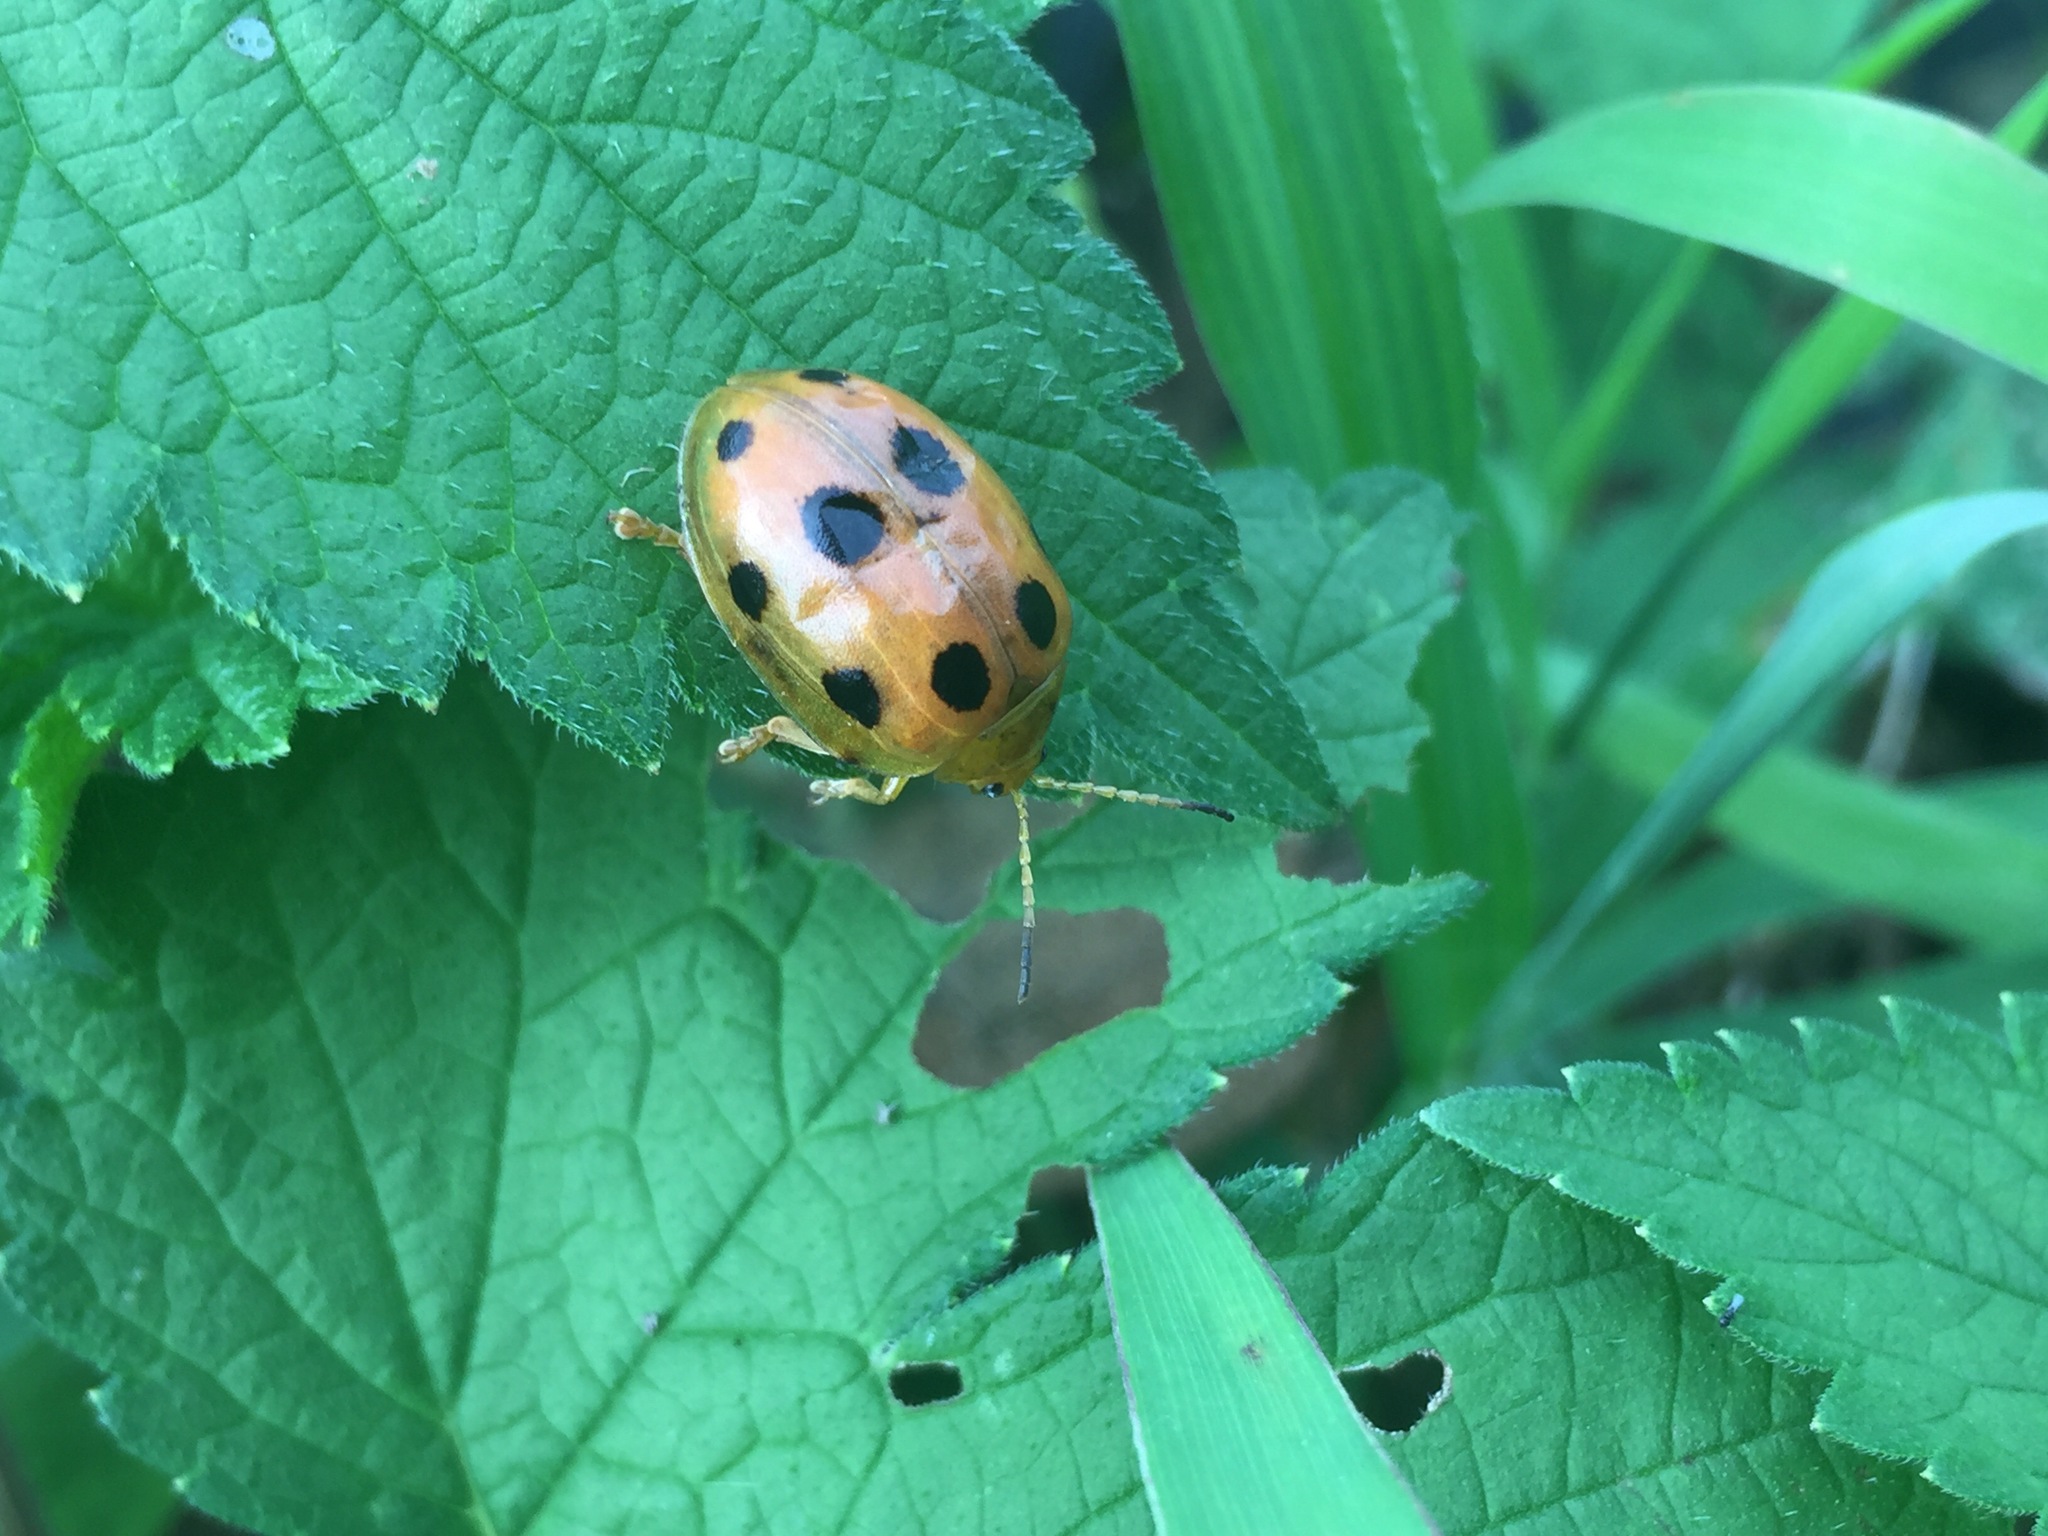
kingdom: Animalia
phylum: Arthropoda
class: Insecta
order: Coleoptera
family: Chrysomelidae
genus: Oides
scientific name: Oides decempunctata
